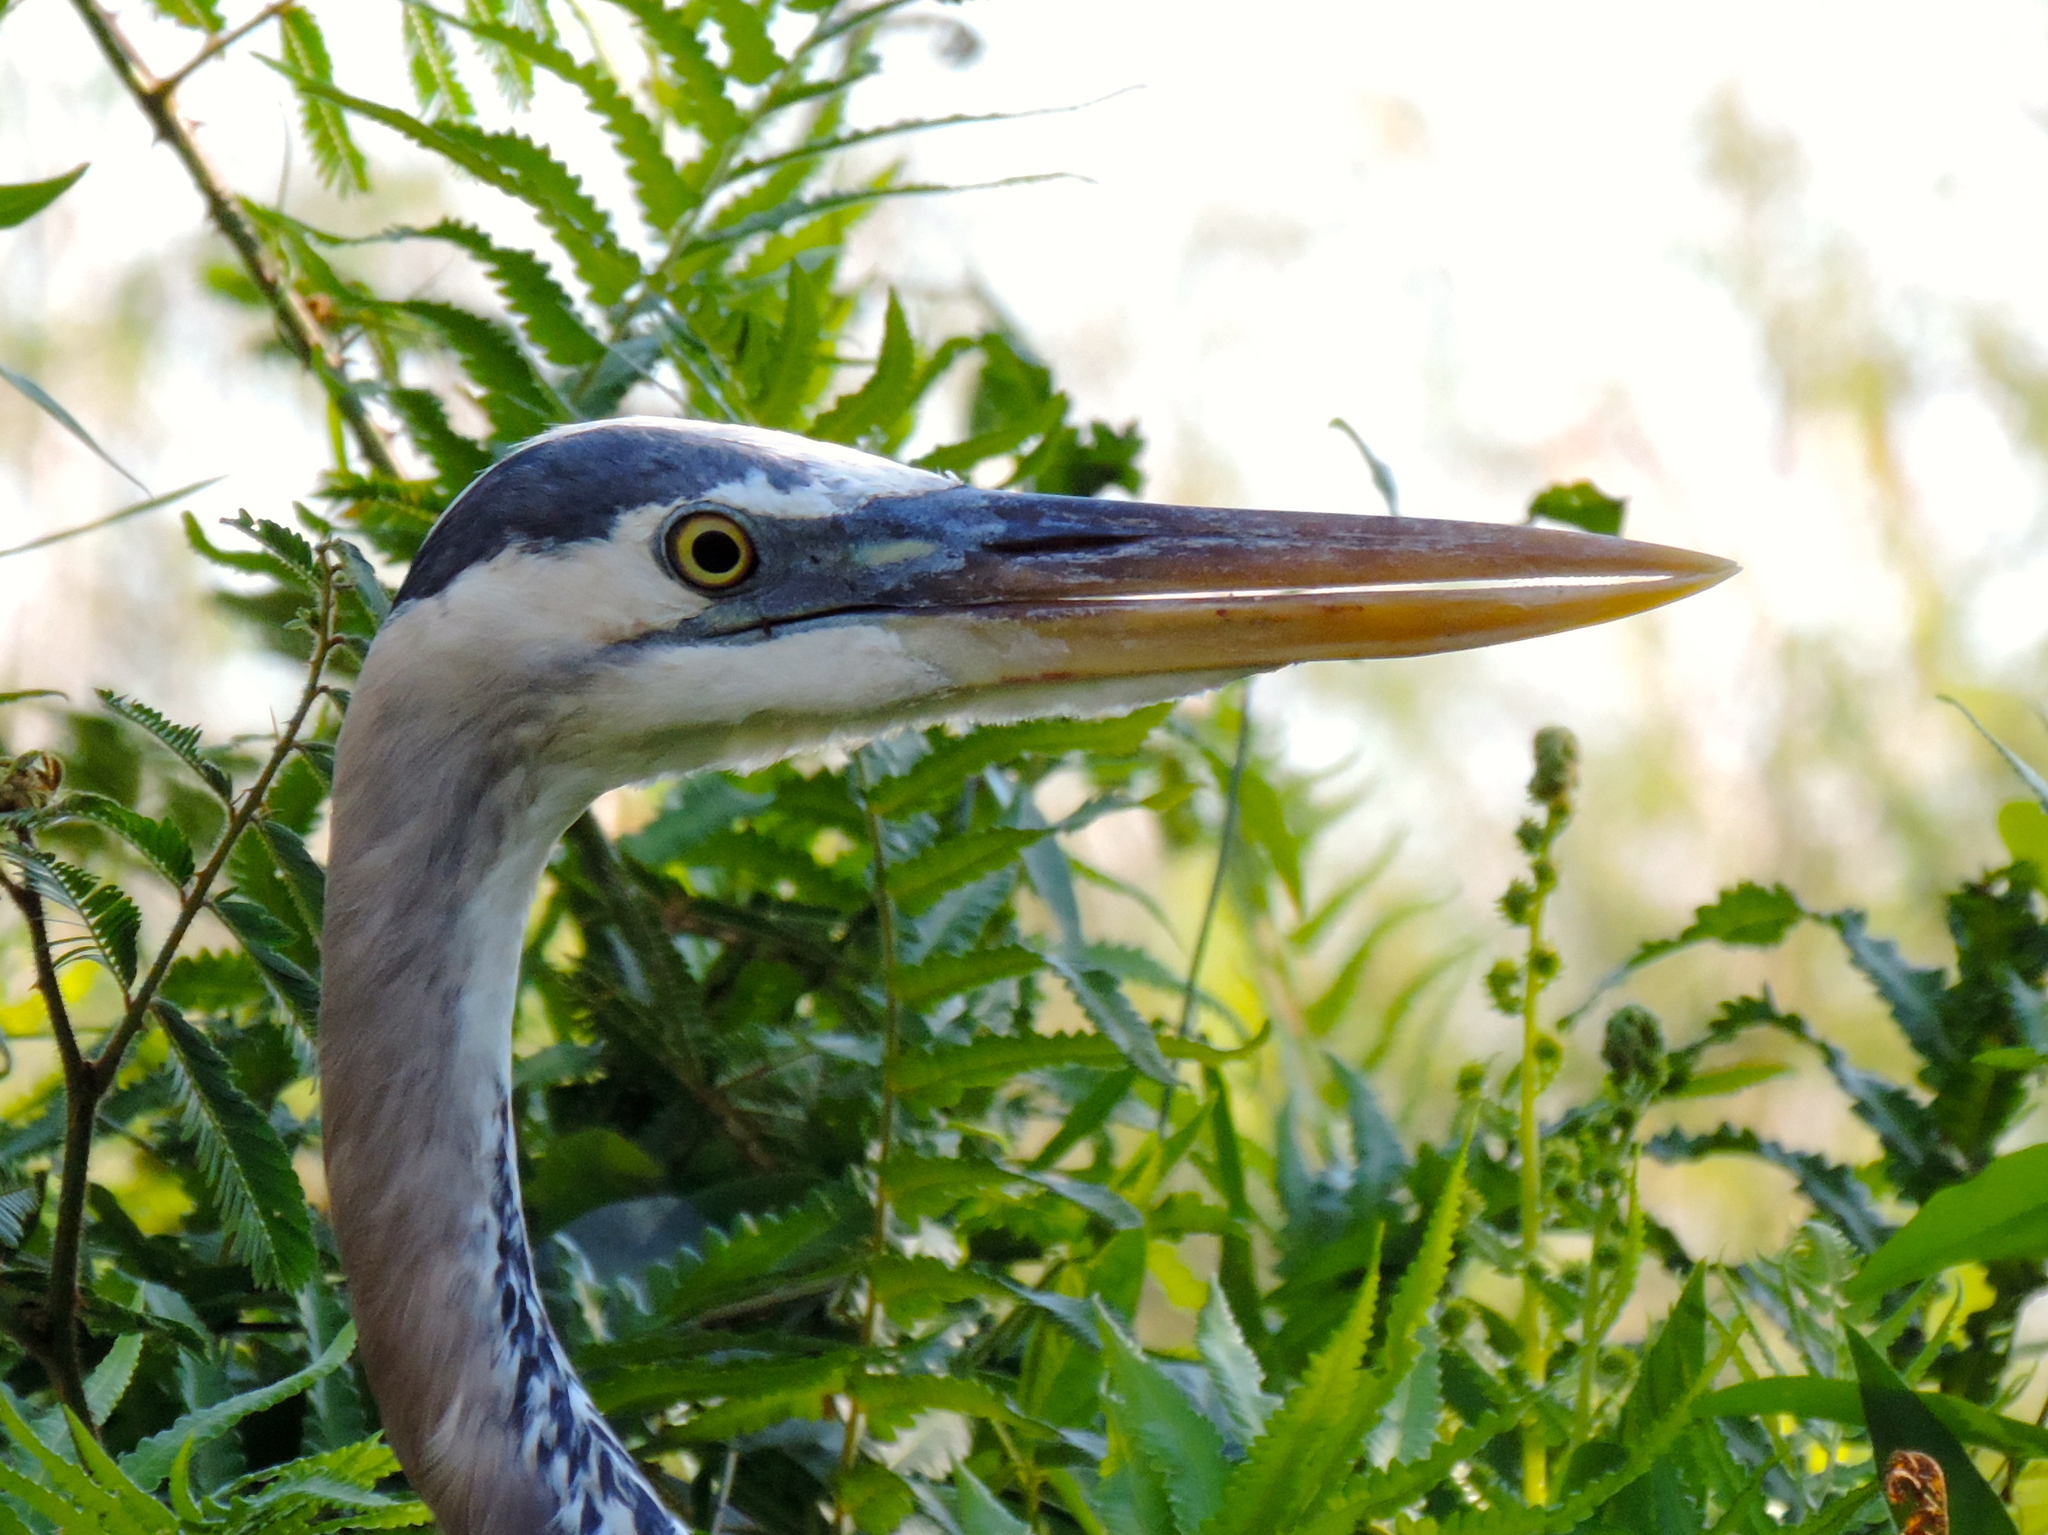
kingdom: Animalia
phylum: Chordata
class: Aves
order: Pelecaniformes
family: Ardeidae
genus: Ardea
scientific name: Ardea herodias
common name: Great blue heron
